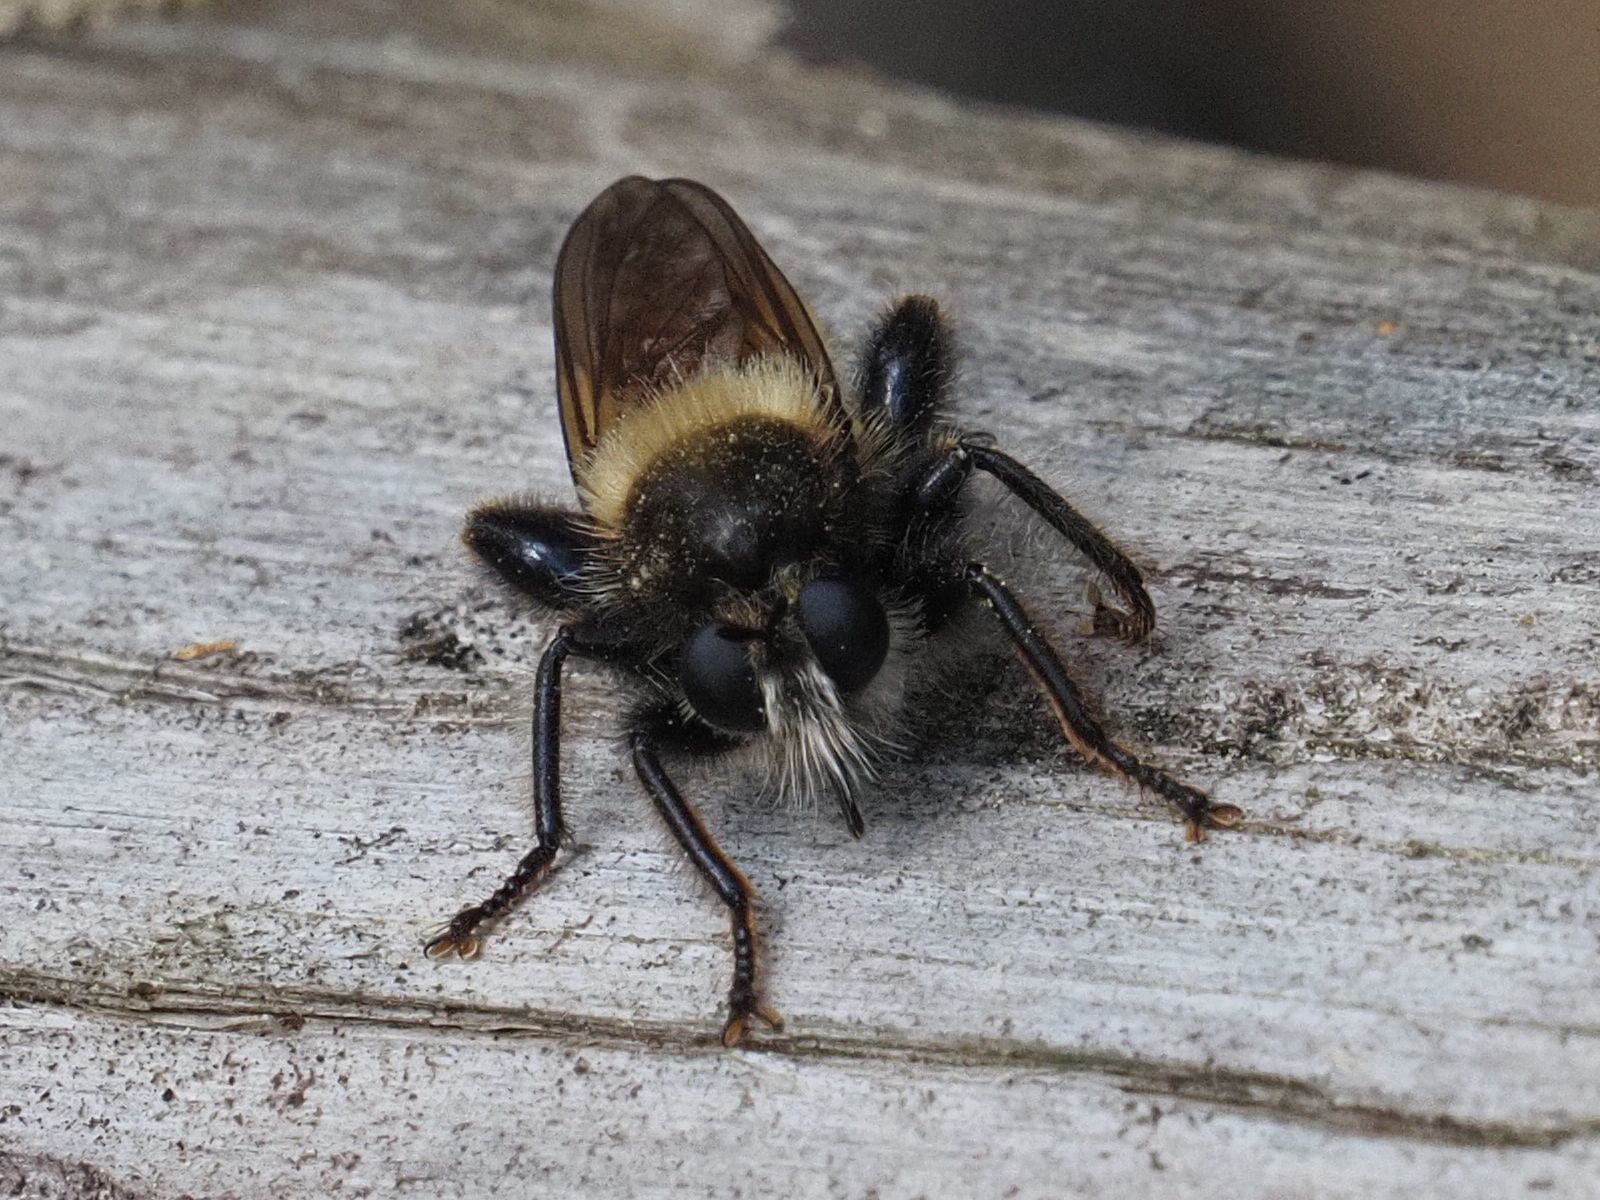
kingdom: Animalia
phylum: Arthropoda
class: Insecta
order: Diptera
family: Asilidae
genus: Laphria
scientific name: Laphria flava
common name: Bumblebee robberfly
